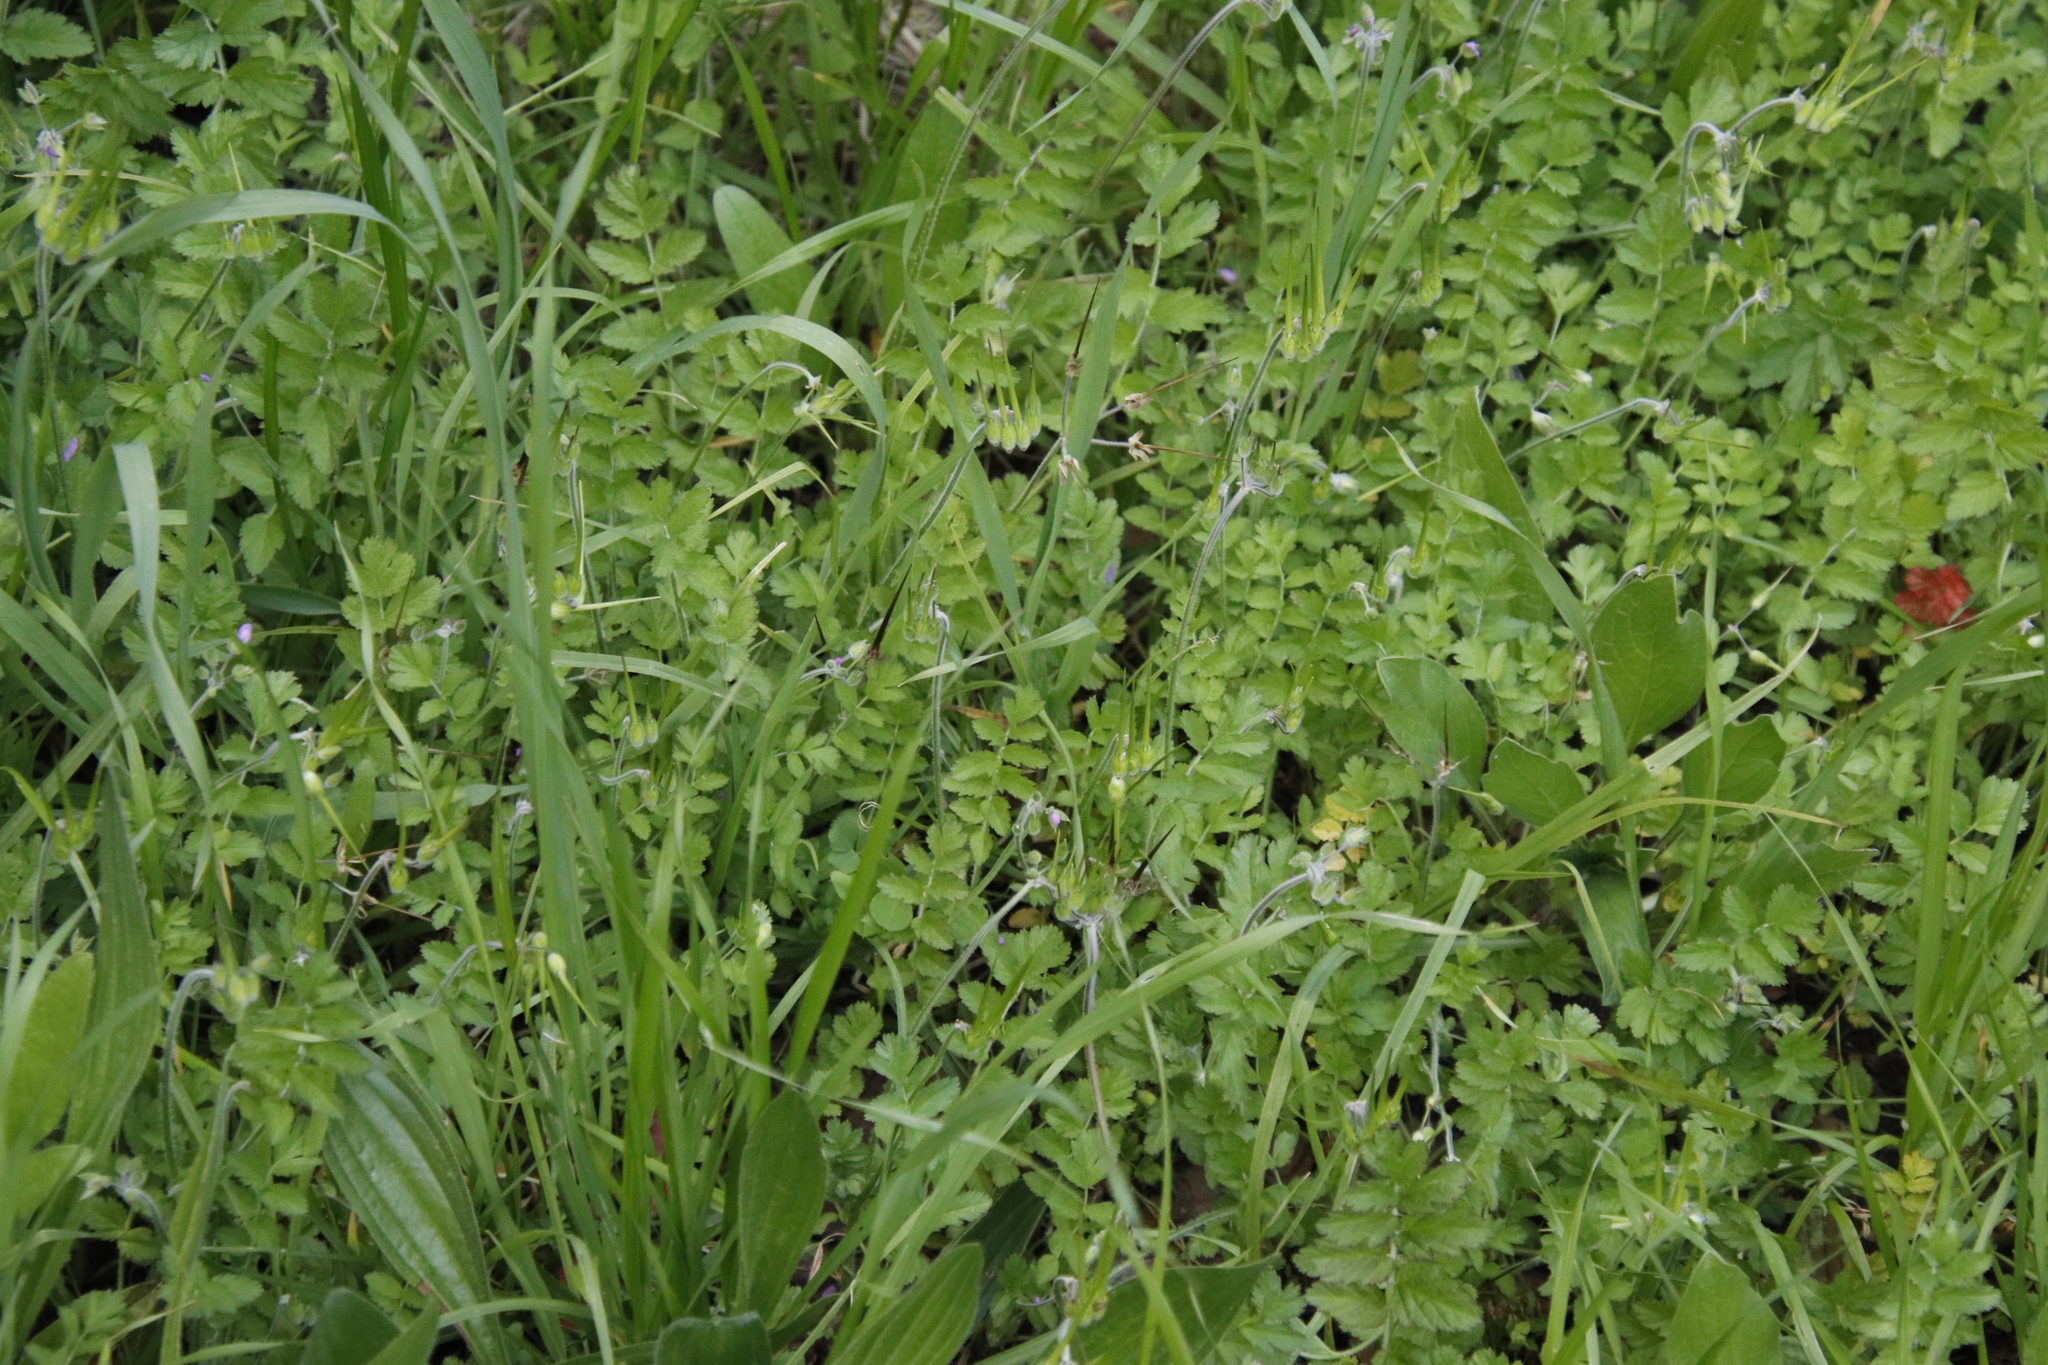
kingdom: Plantae
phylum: Tracheophyta
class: Magnoliopsida
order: Geraniales
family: Geraniaceae
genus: Erodium
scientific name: Erodium moschatum
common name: Musk stork's-bill
